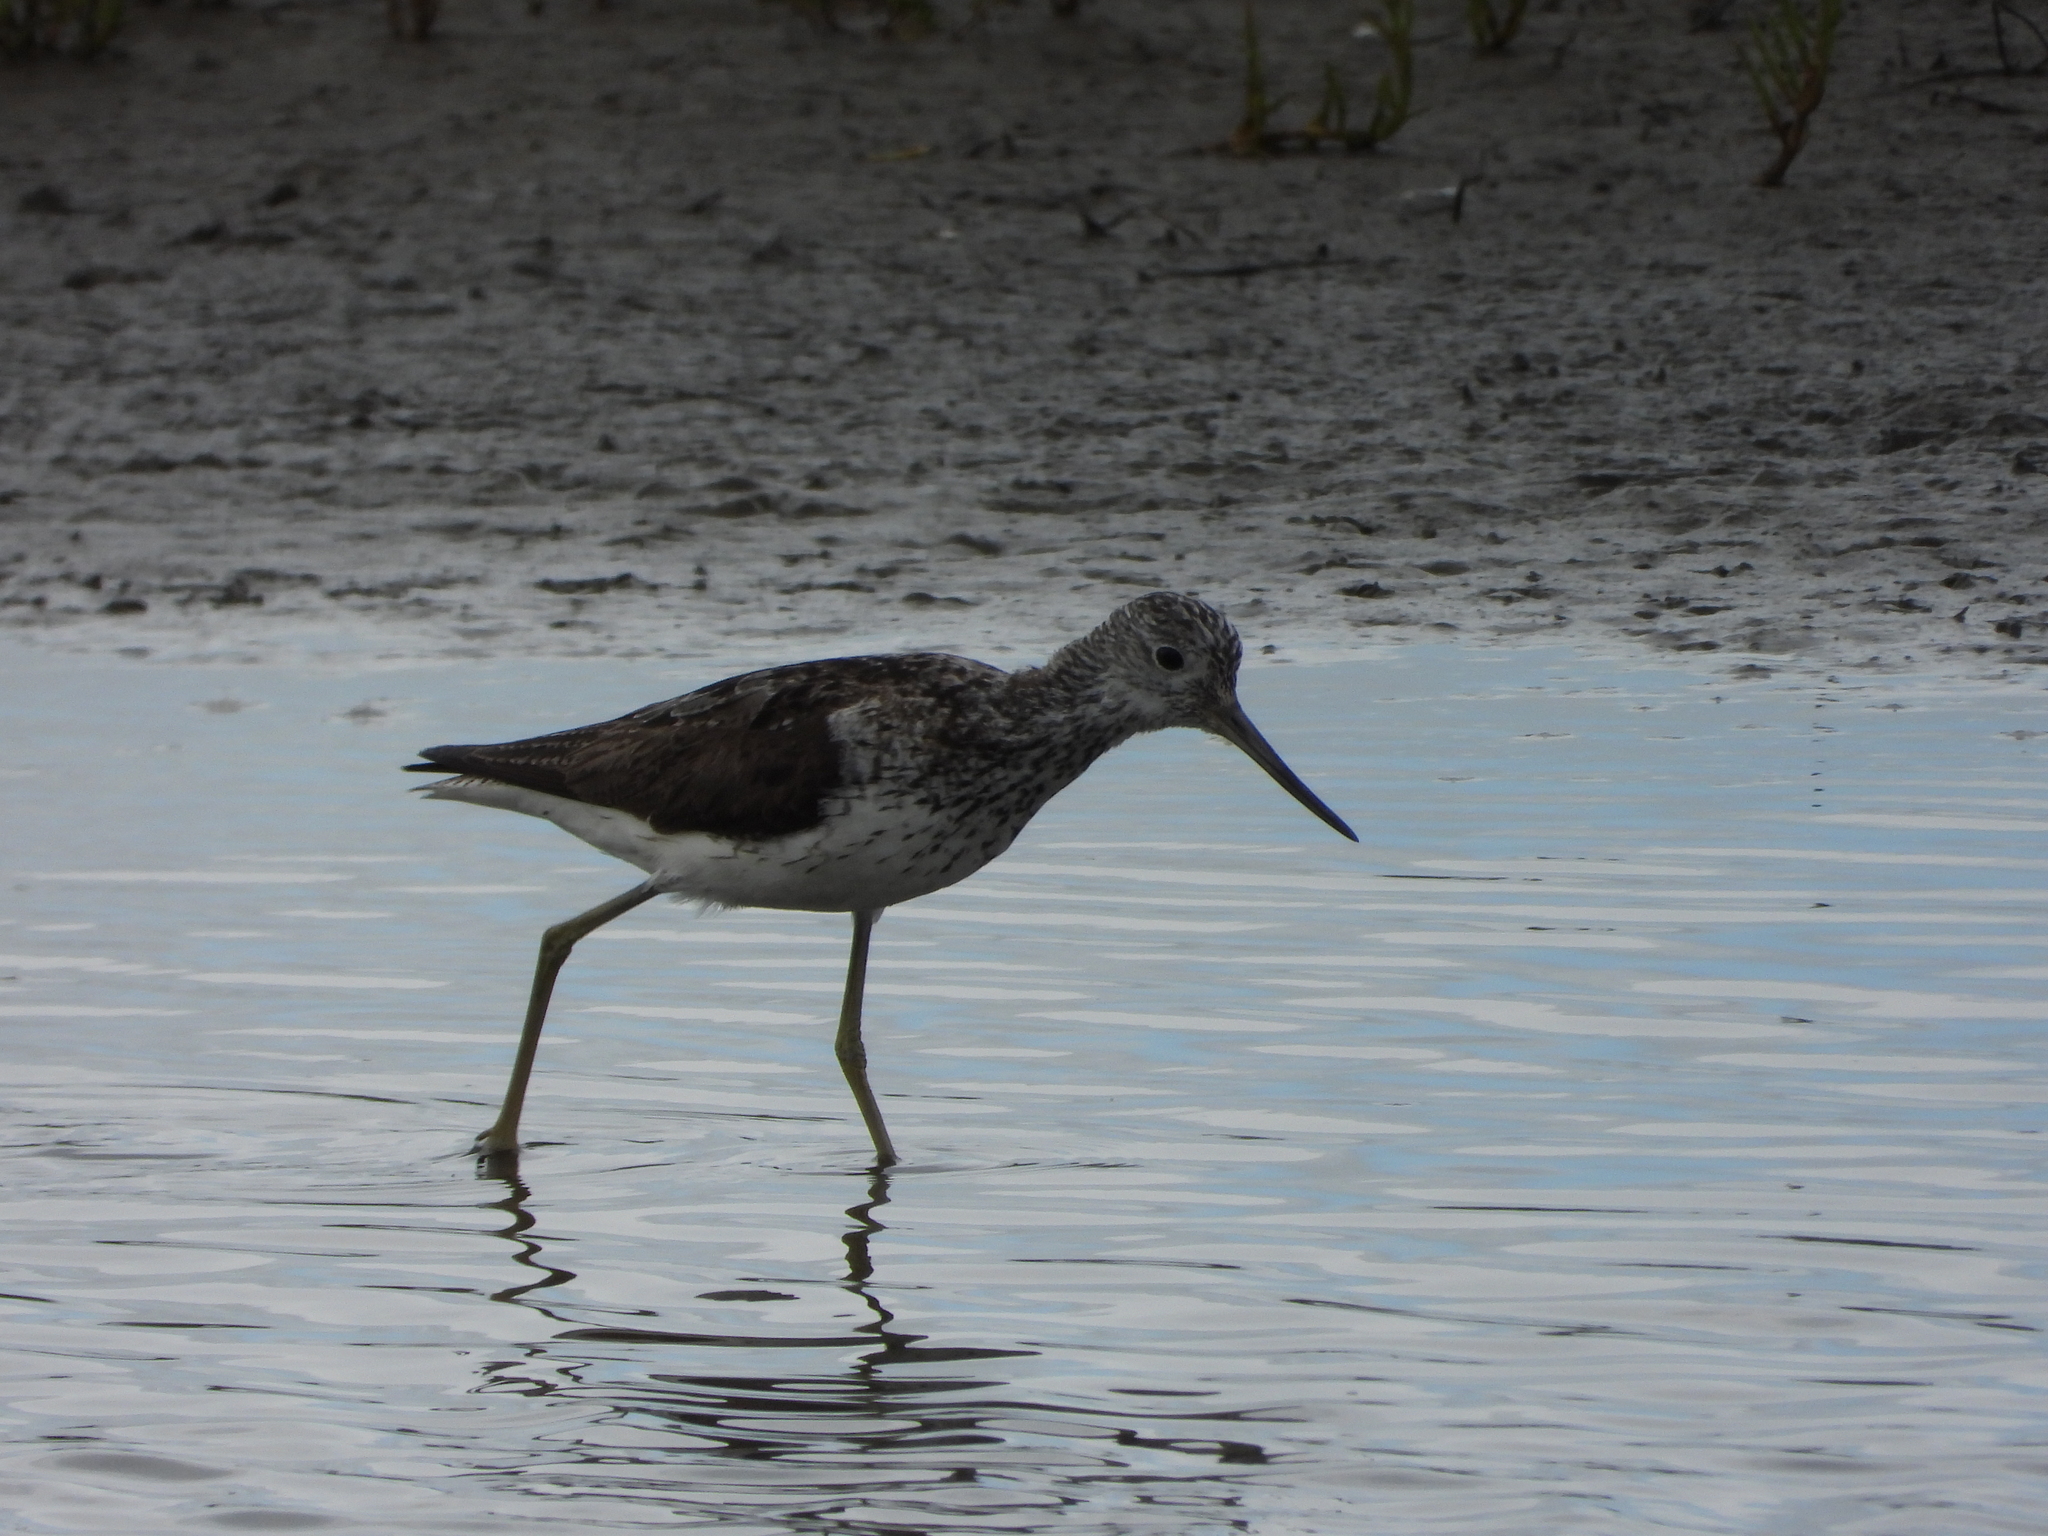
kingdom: Animalia
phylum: Chordata
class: Aves
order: Charadriiformes
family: Scolopacidae
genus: Tringa
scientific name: Tringa nebularia
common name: Common greenshank
